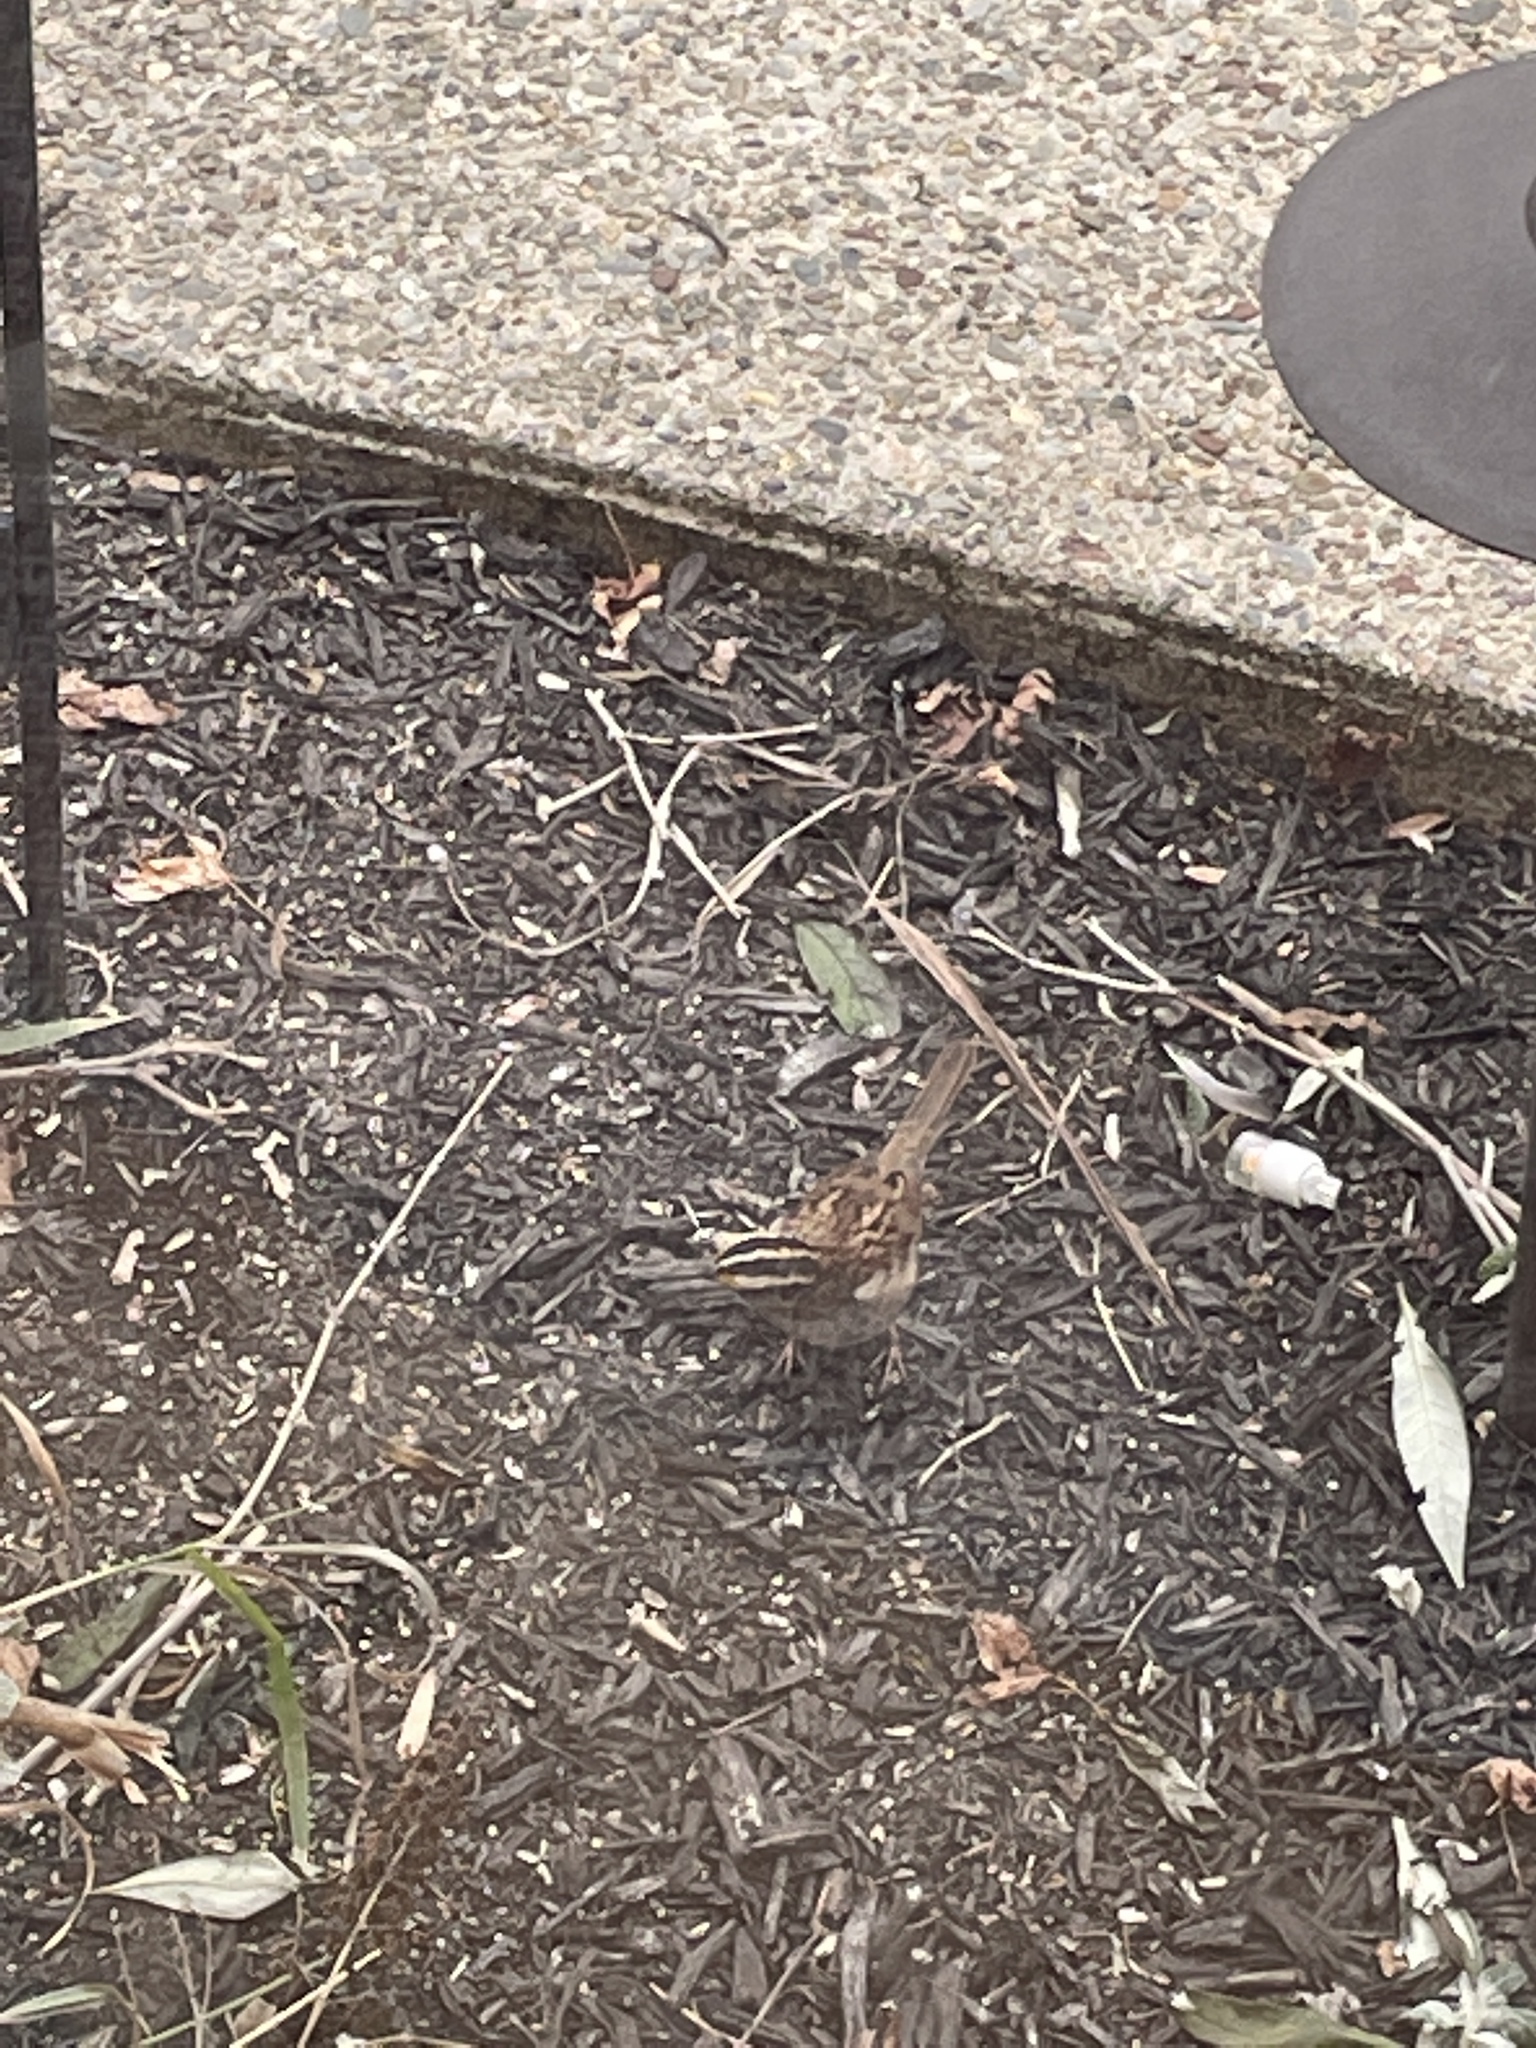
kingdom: Animalia
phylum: Chordata
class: Aves
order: Passeriformes
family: Passerellidae
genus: Zonotrichia
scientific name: Zonotrichia albicollis
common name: White-throated sparrow
